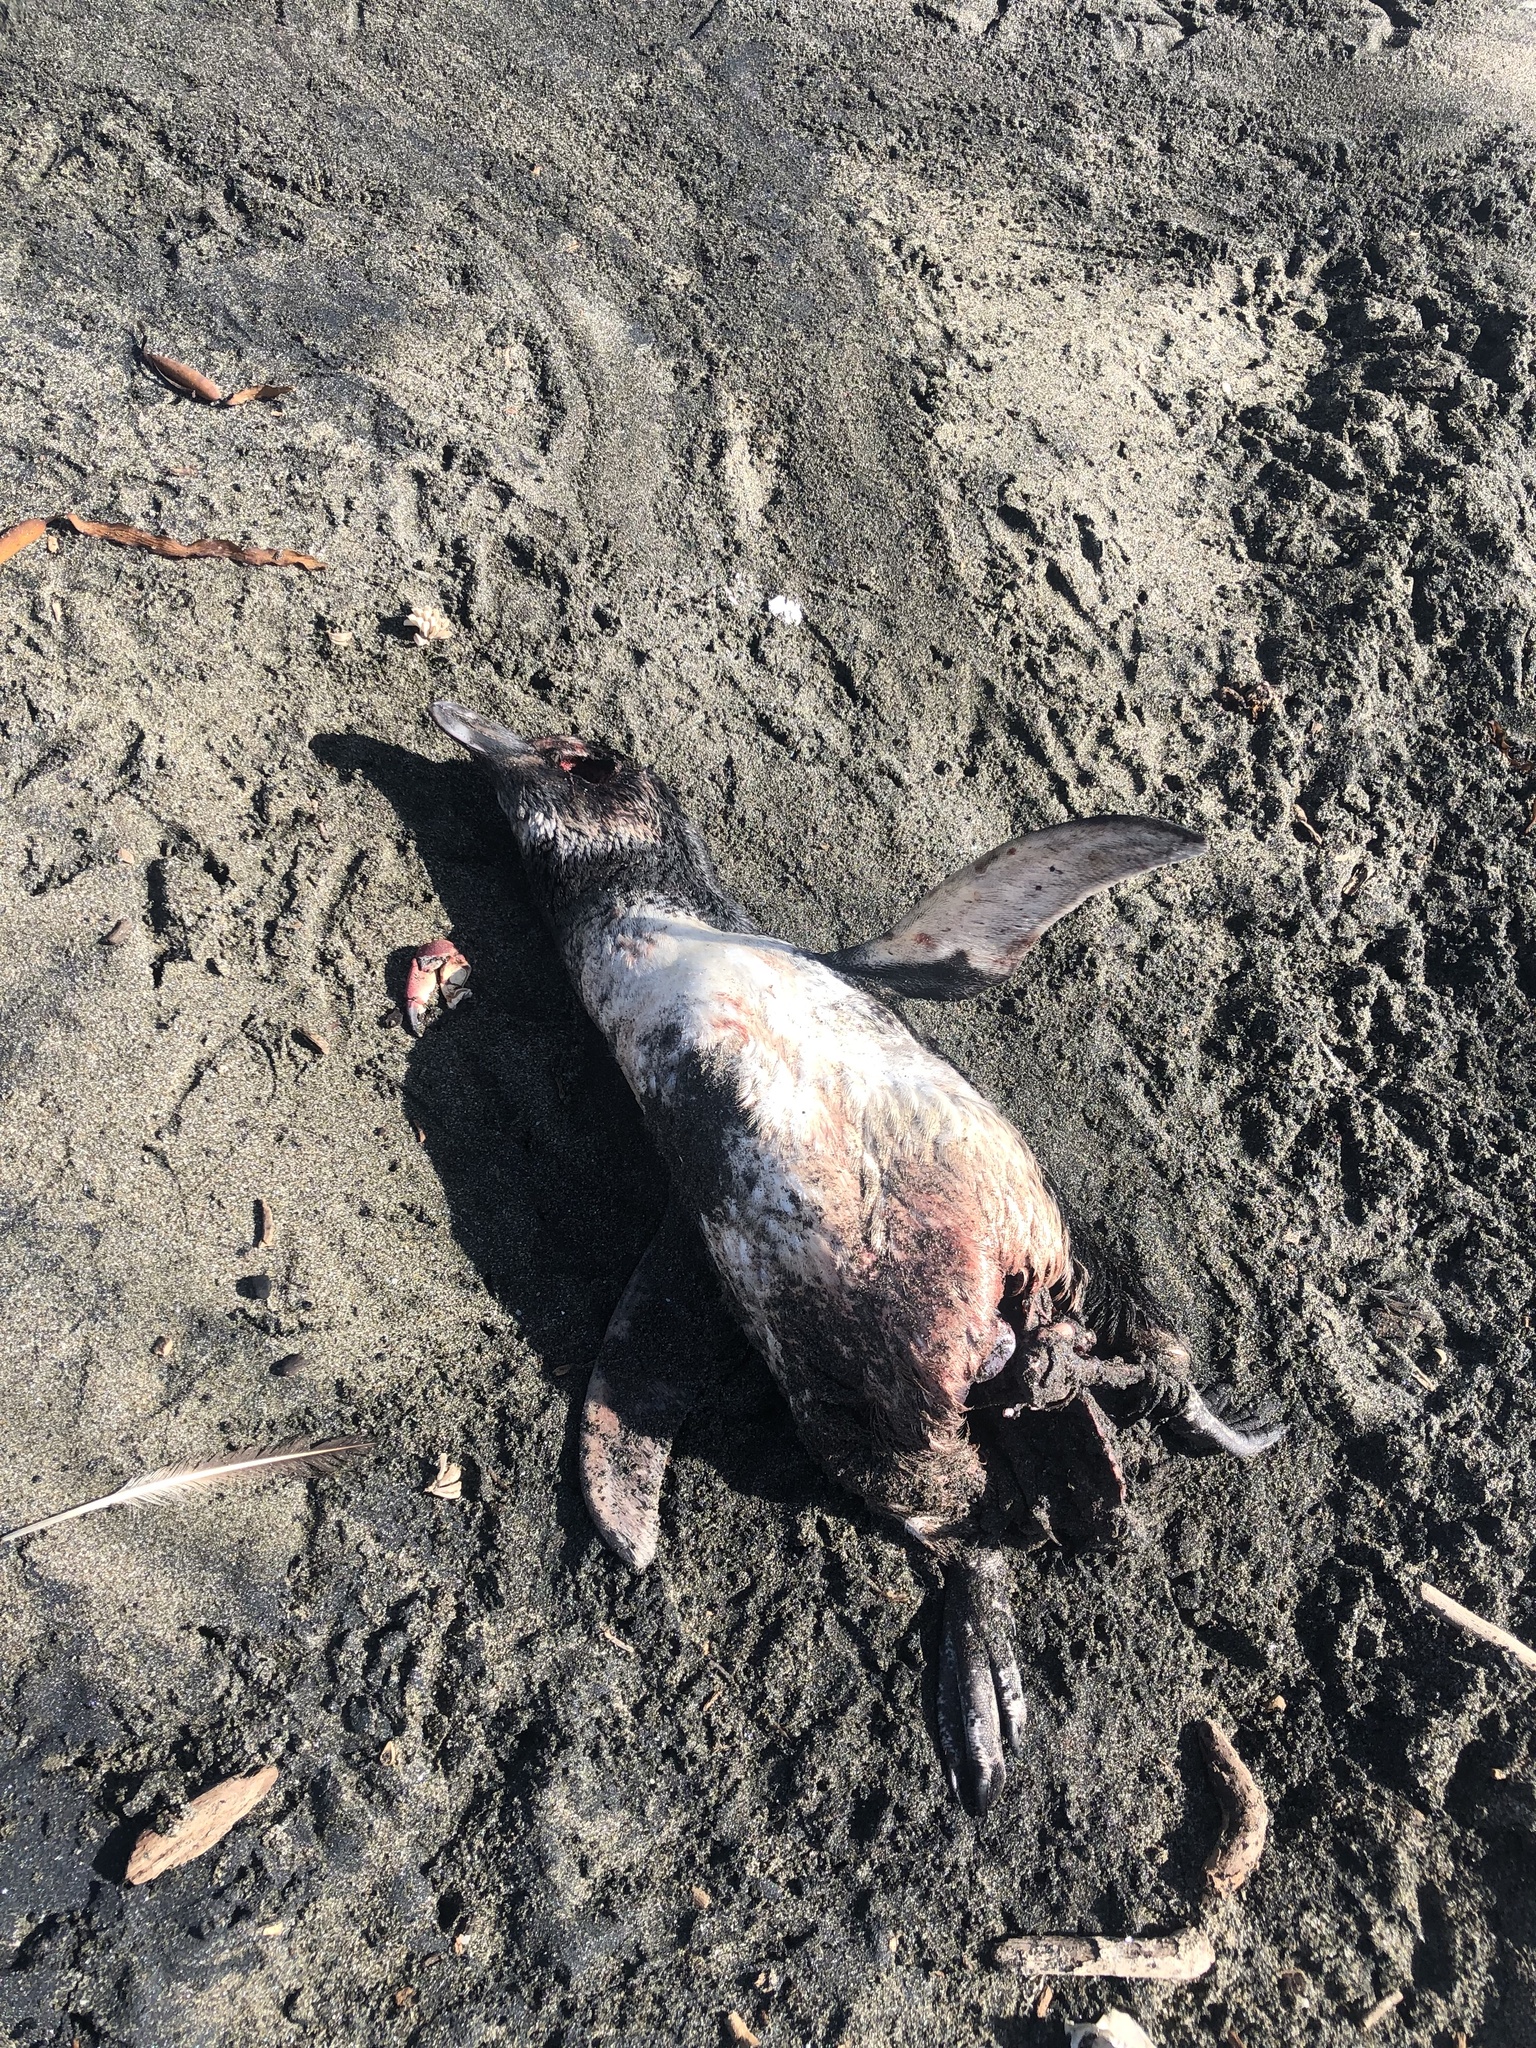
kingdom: Animalia
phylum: Chordata
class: Aves
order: Sphenisciformes
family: Spheniscidae
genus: Spheniscus
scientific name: Spheniscus humboldti
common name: Humboldt penguin
